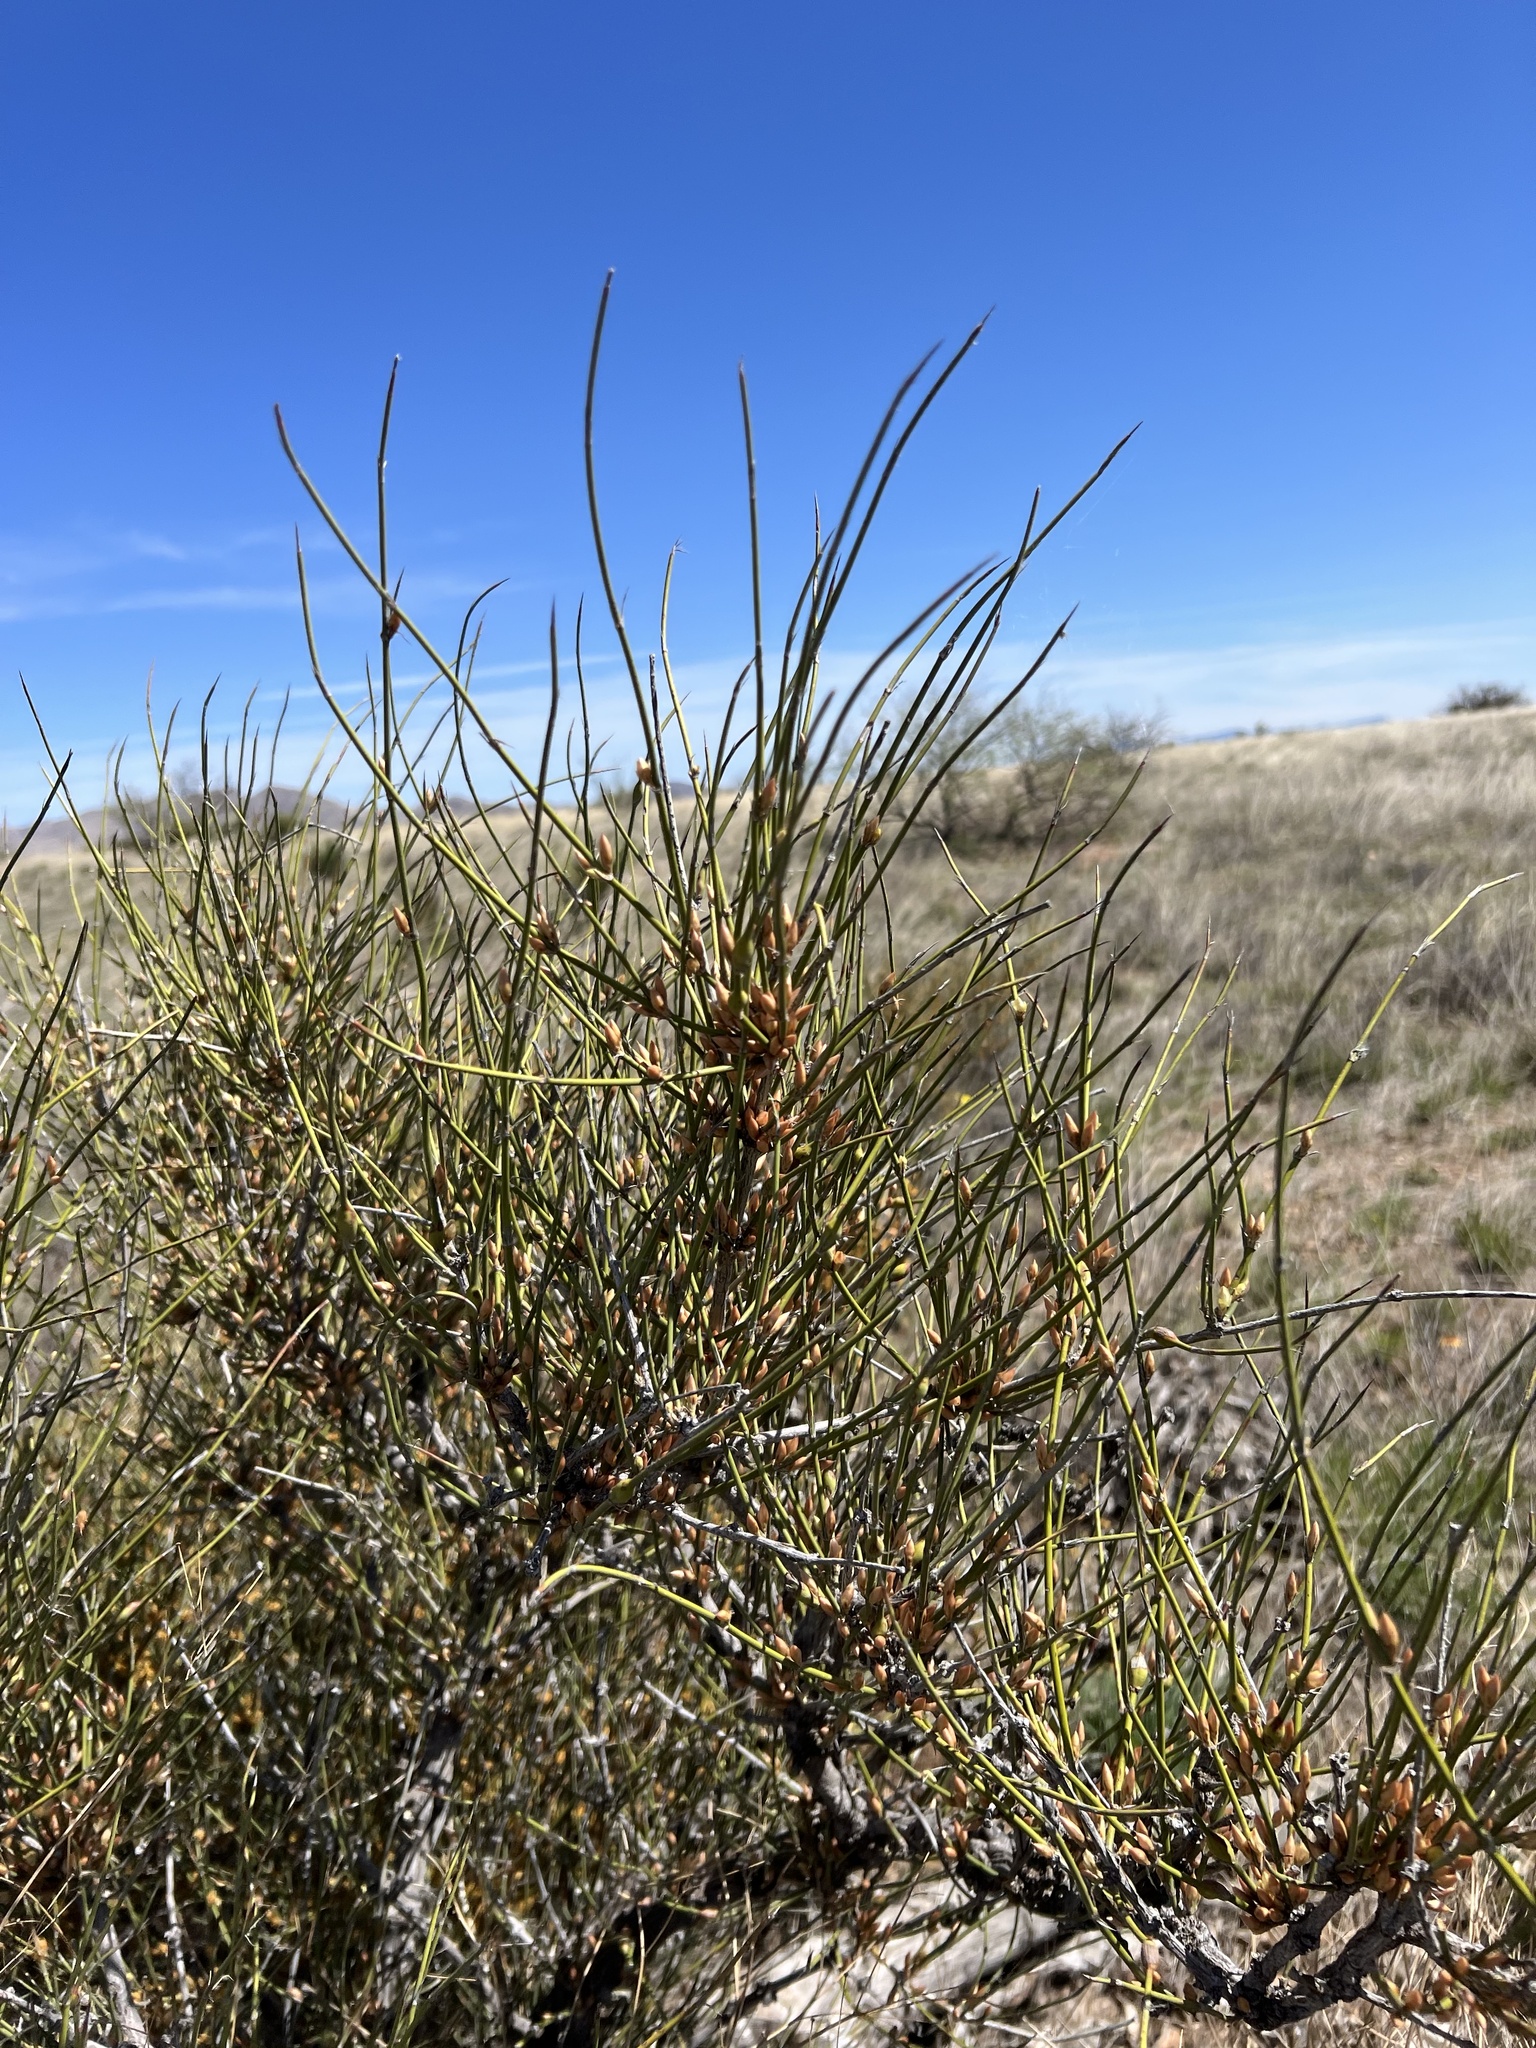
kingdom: Plantae
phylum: Tracheophyta
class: Gnetopsida
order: Ephedrales
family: Ephedraceae
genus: Ephedra
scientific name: Ephedra trifurca
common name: Mexican-tea
